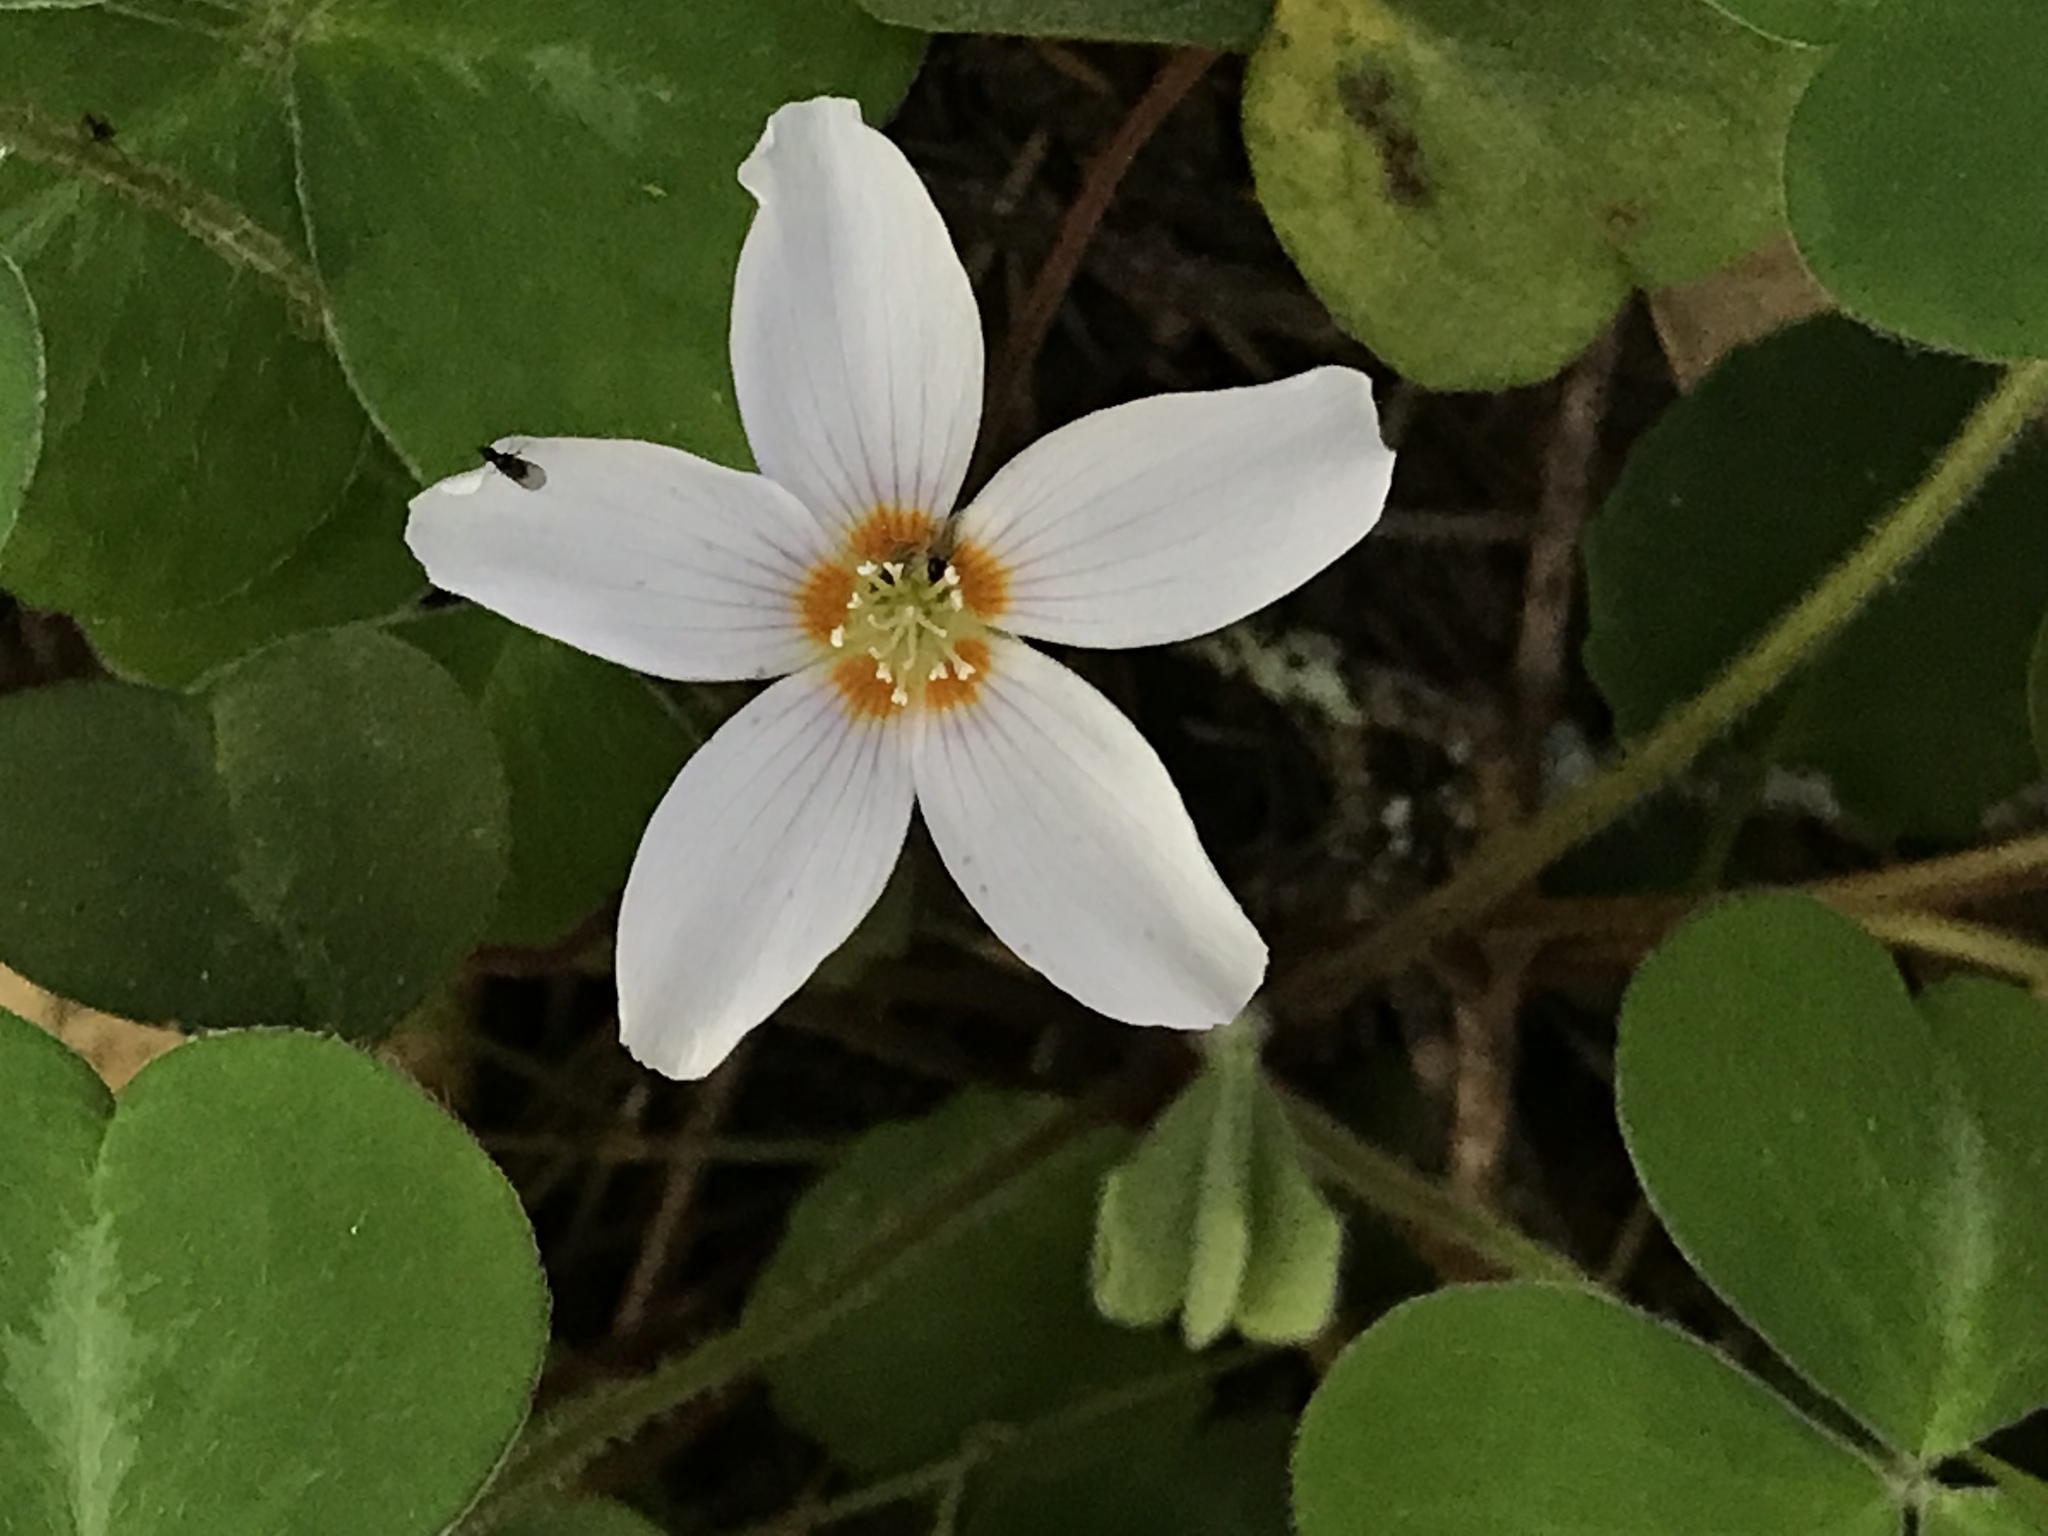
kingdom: Plantae
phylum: Tracheophyta
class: Magnoliopsida
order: Oxalidales
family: Oxalidaceae
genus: Oxalis
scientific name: Oxalis oregana
